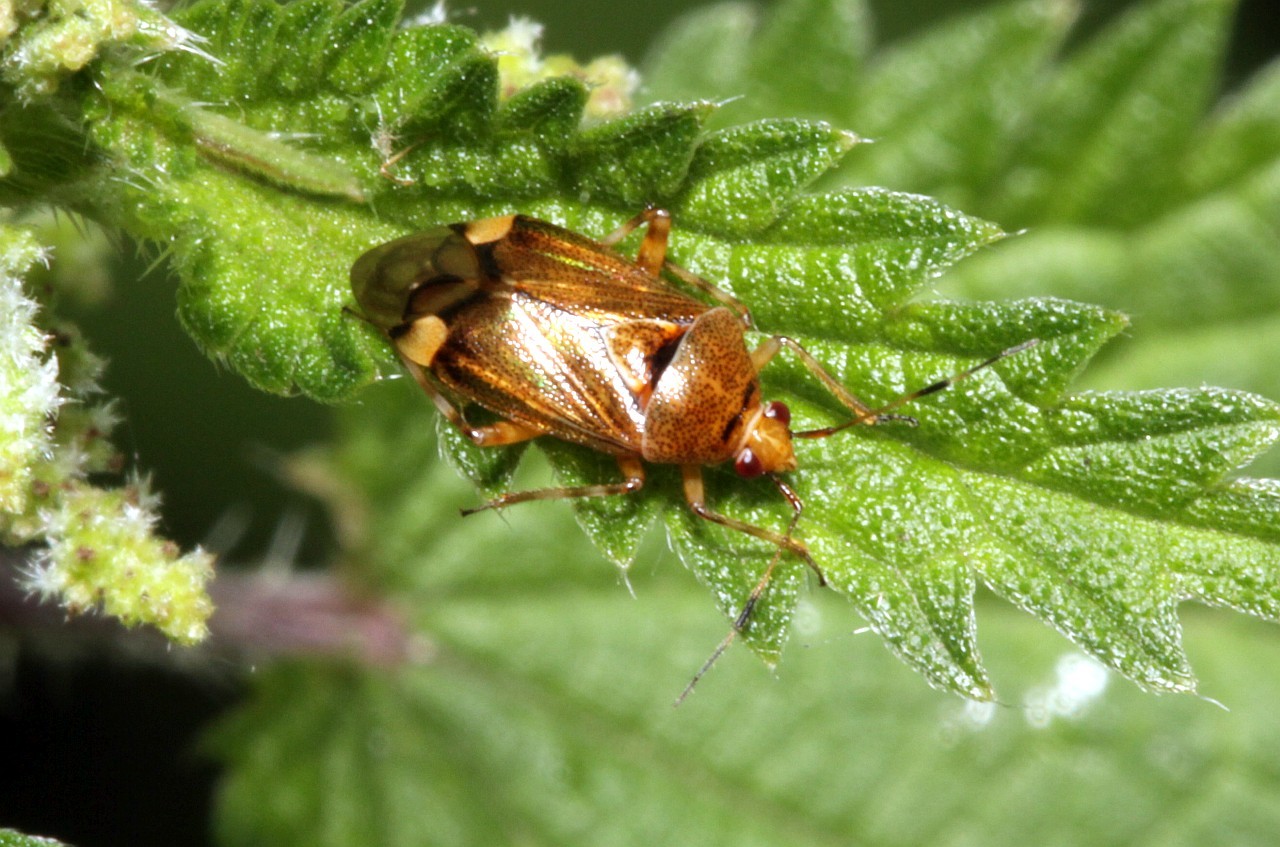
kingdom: Animalia
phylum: Arthropoda
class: Insecta
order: Hemiptera
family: Miridae
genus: Deraeocoris
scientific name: Deraeocoris flavilinea
